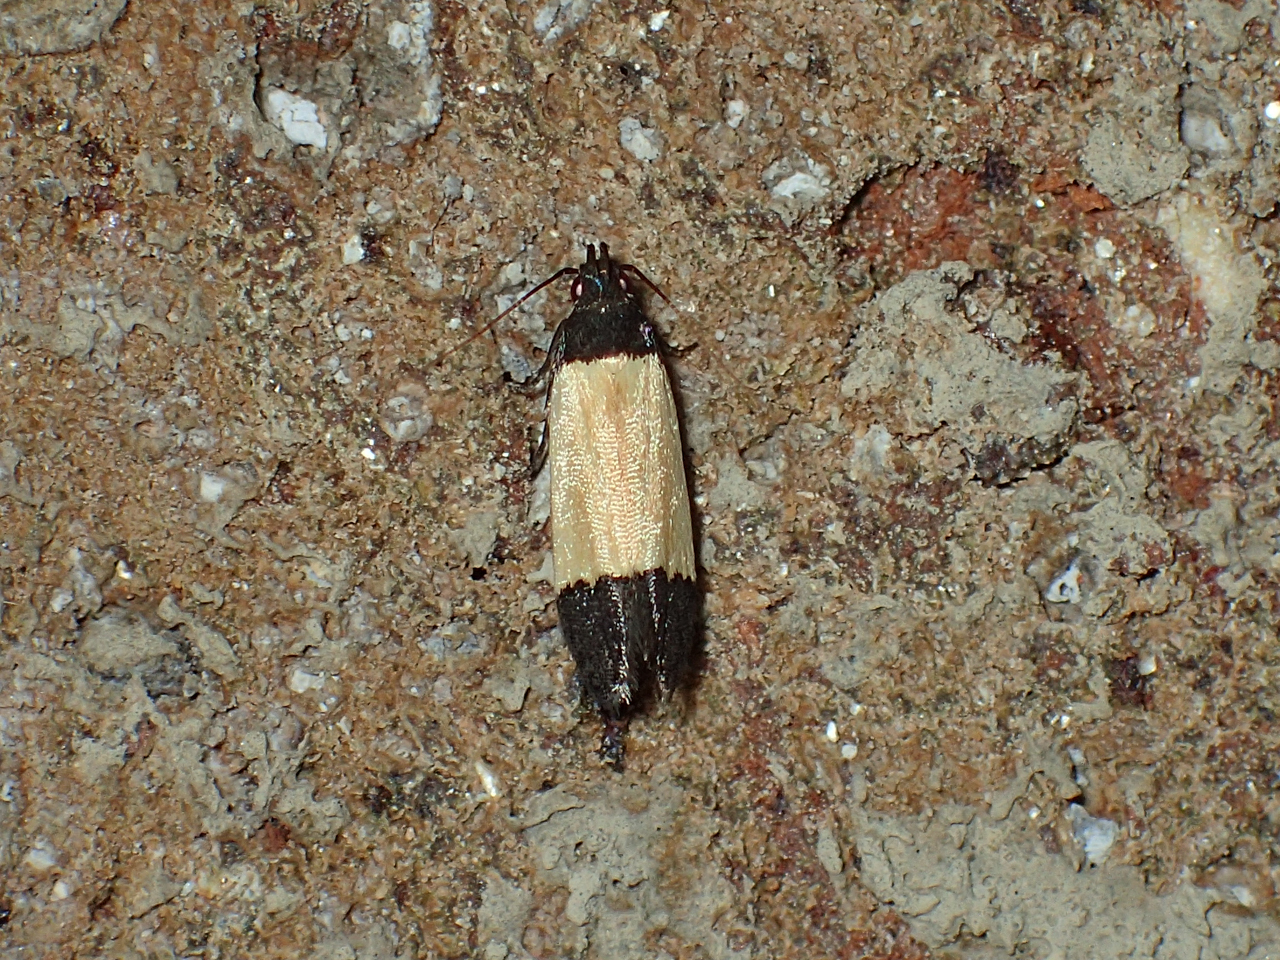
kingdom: Animalia
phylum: Arthropoda
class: Insecta
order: Lepidoptera
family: Gelechiidae
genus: Anacampsis
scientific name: Anacampsis coverdalella
